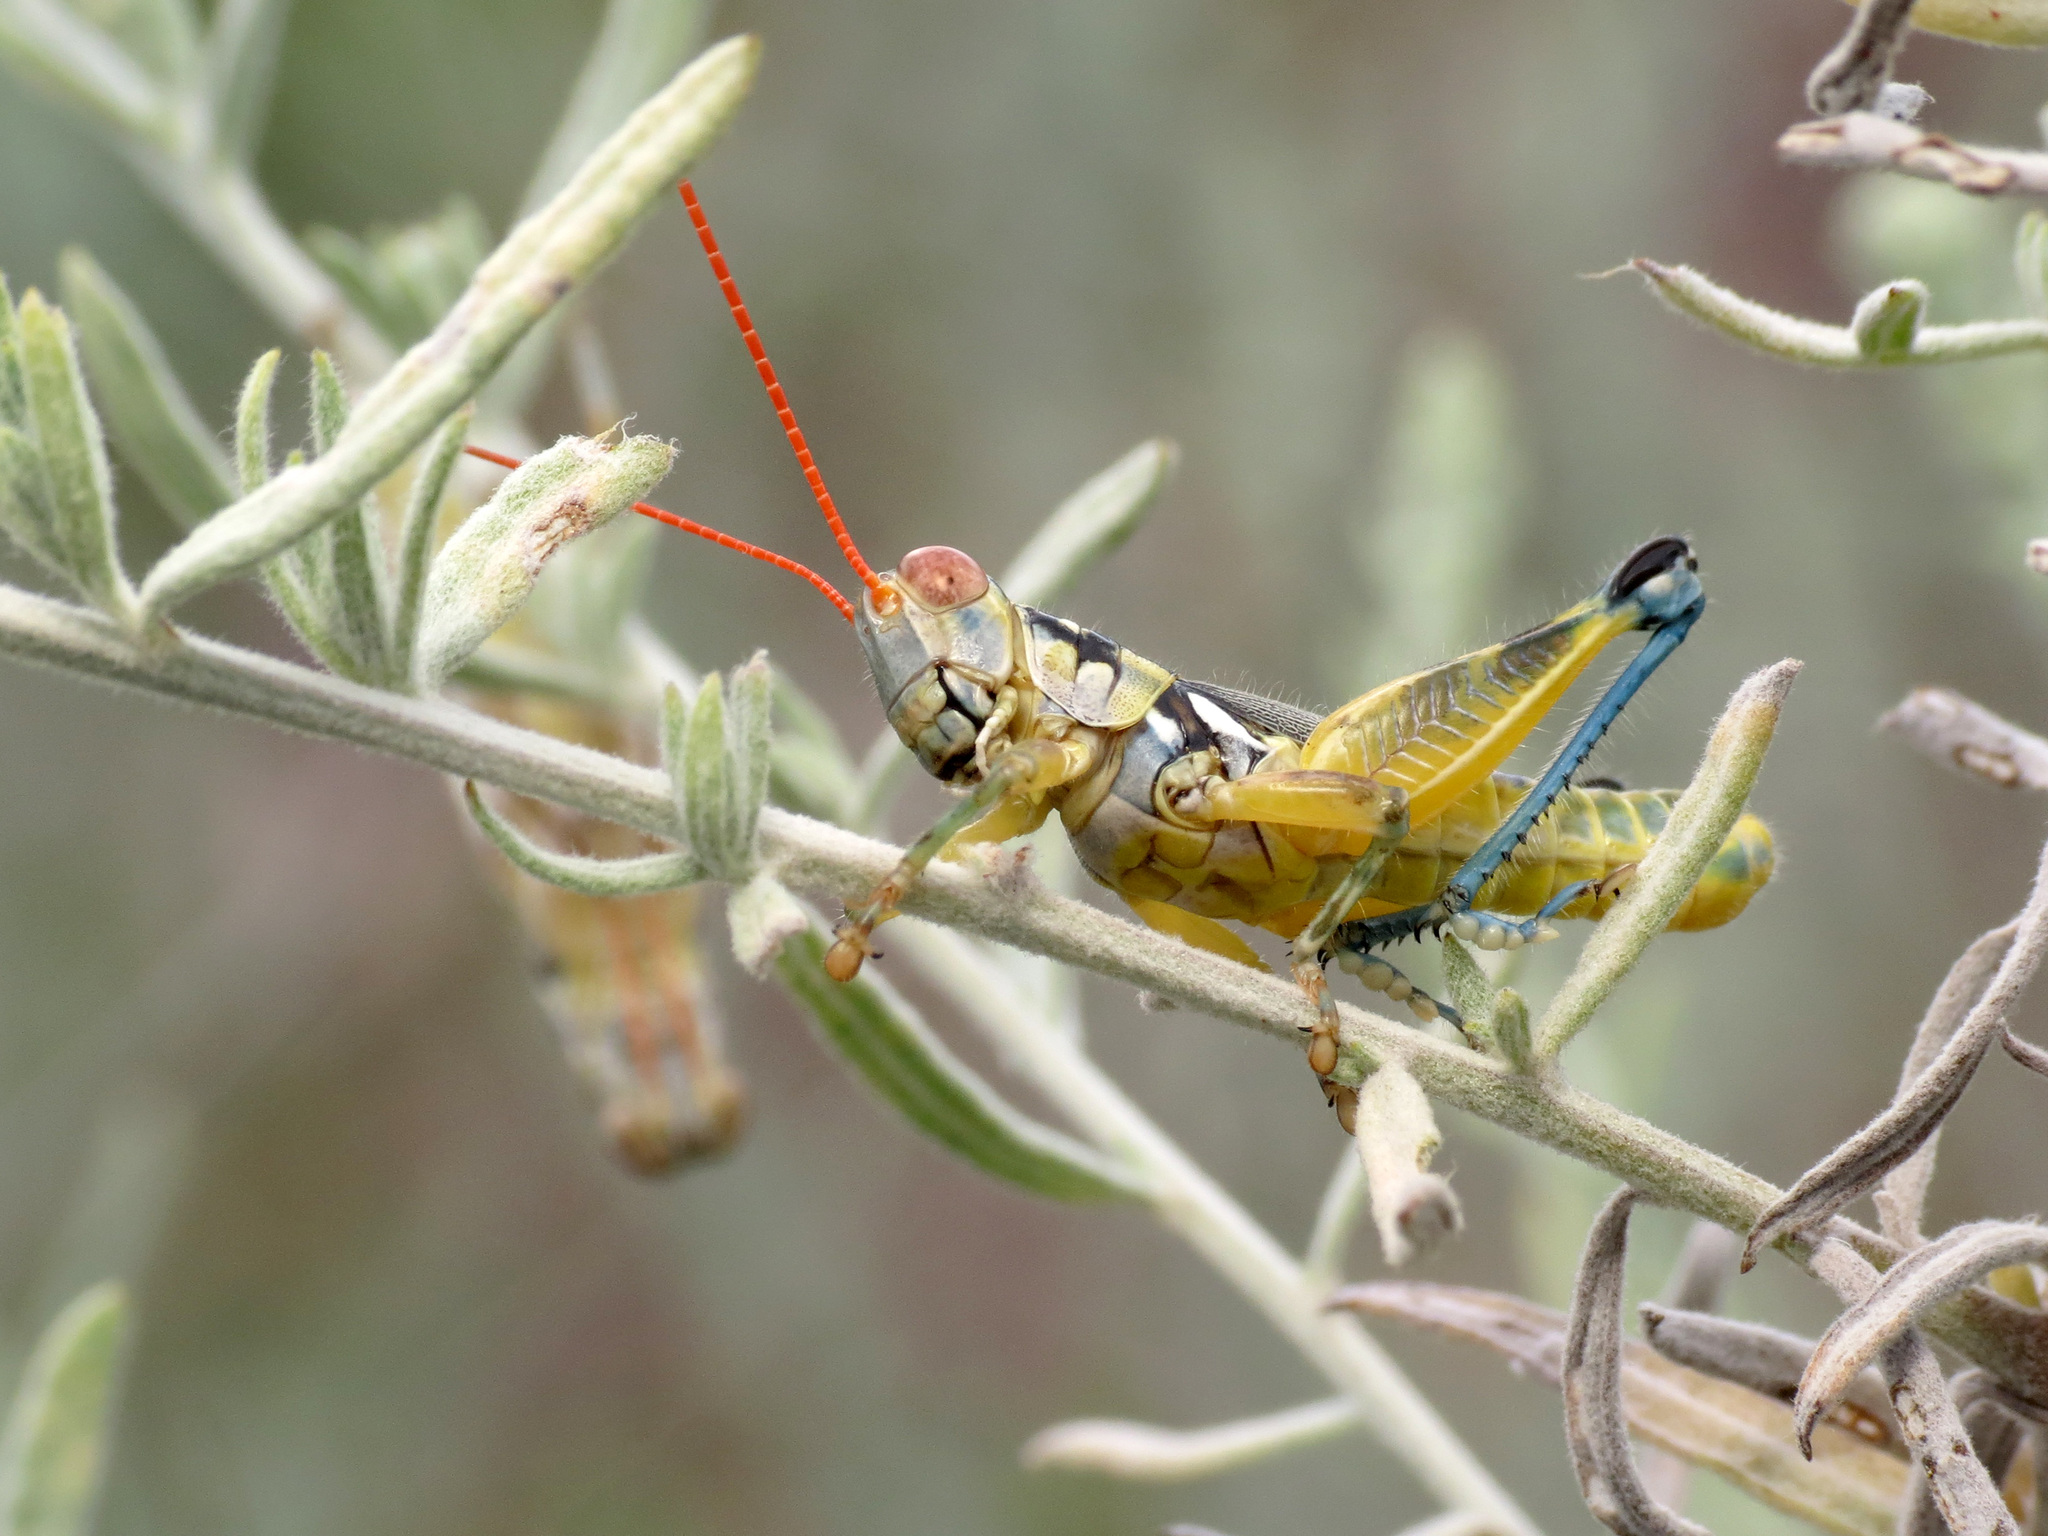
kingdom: Animalia
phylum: Arthropoda
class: Insecta
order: Orthoptera
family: Acrididae
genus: Melanoplus
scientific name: Melanoplus aridus
